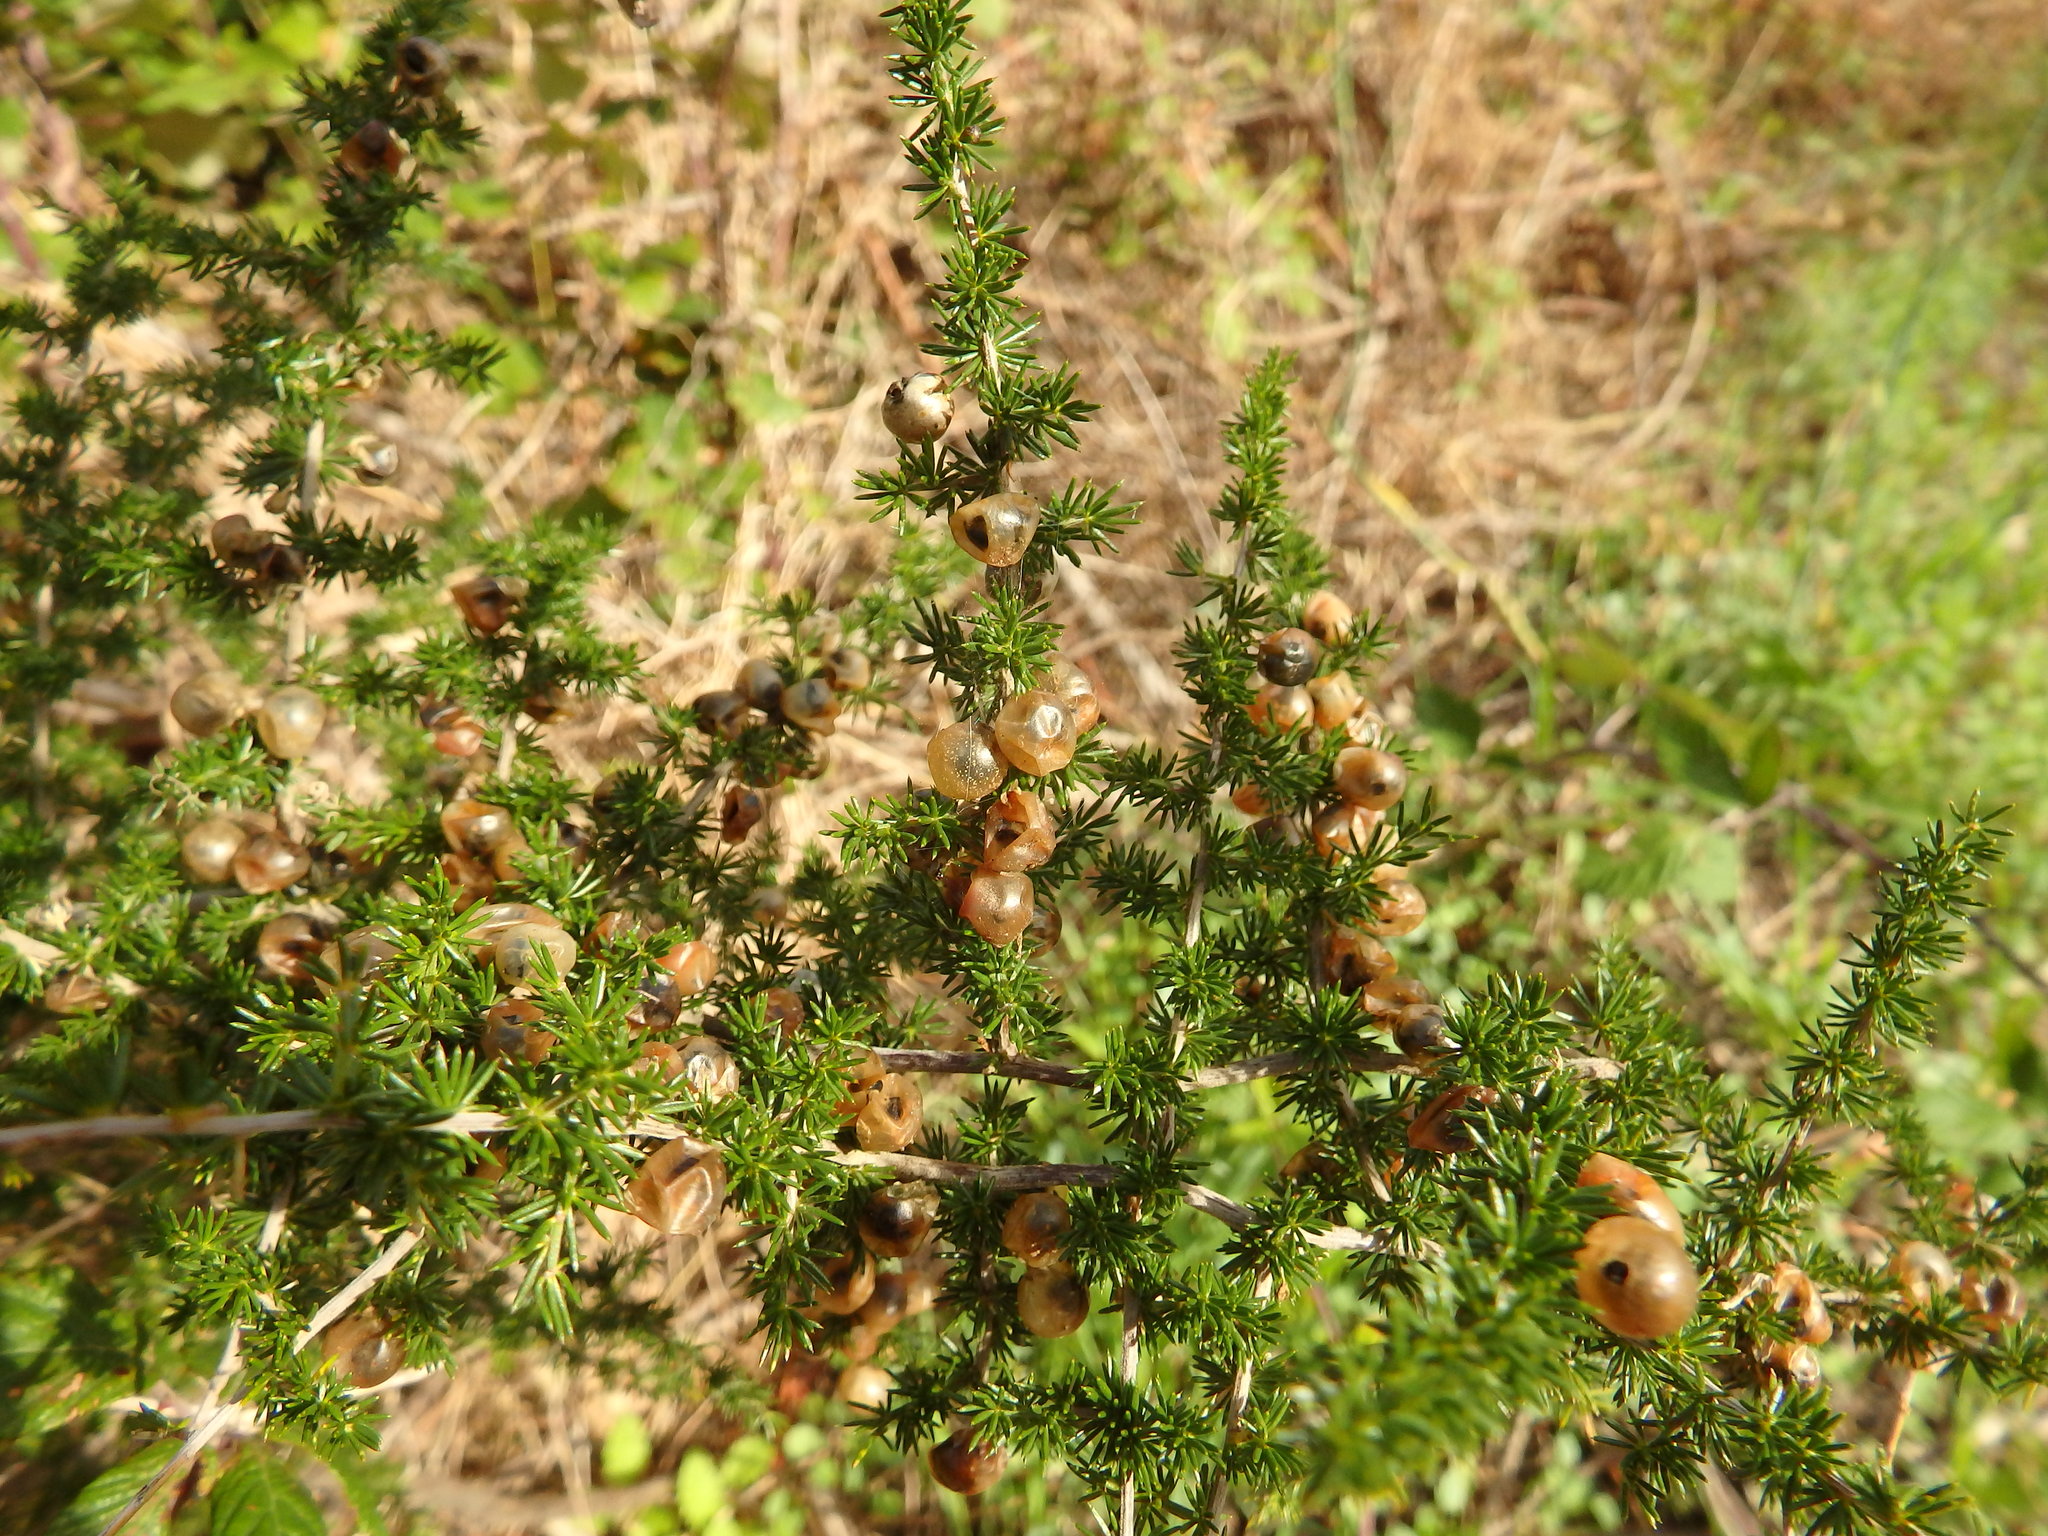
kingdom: Plantae
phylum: Tracheophyta
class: Liliopsida
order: Asparagales
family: Asparagaceae
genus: Asparagus
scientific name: Asparagus acutifolius
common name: Wild asparagus
